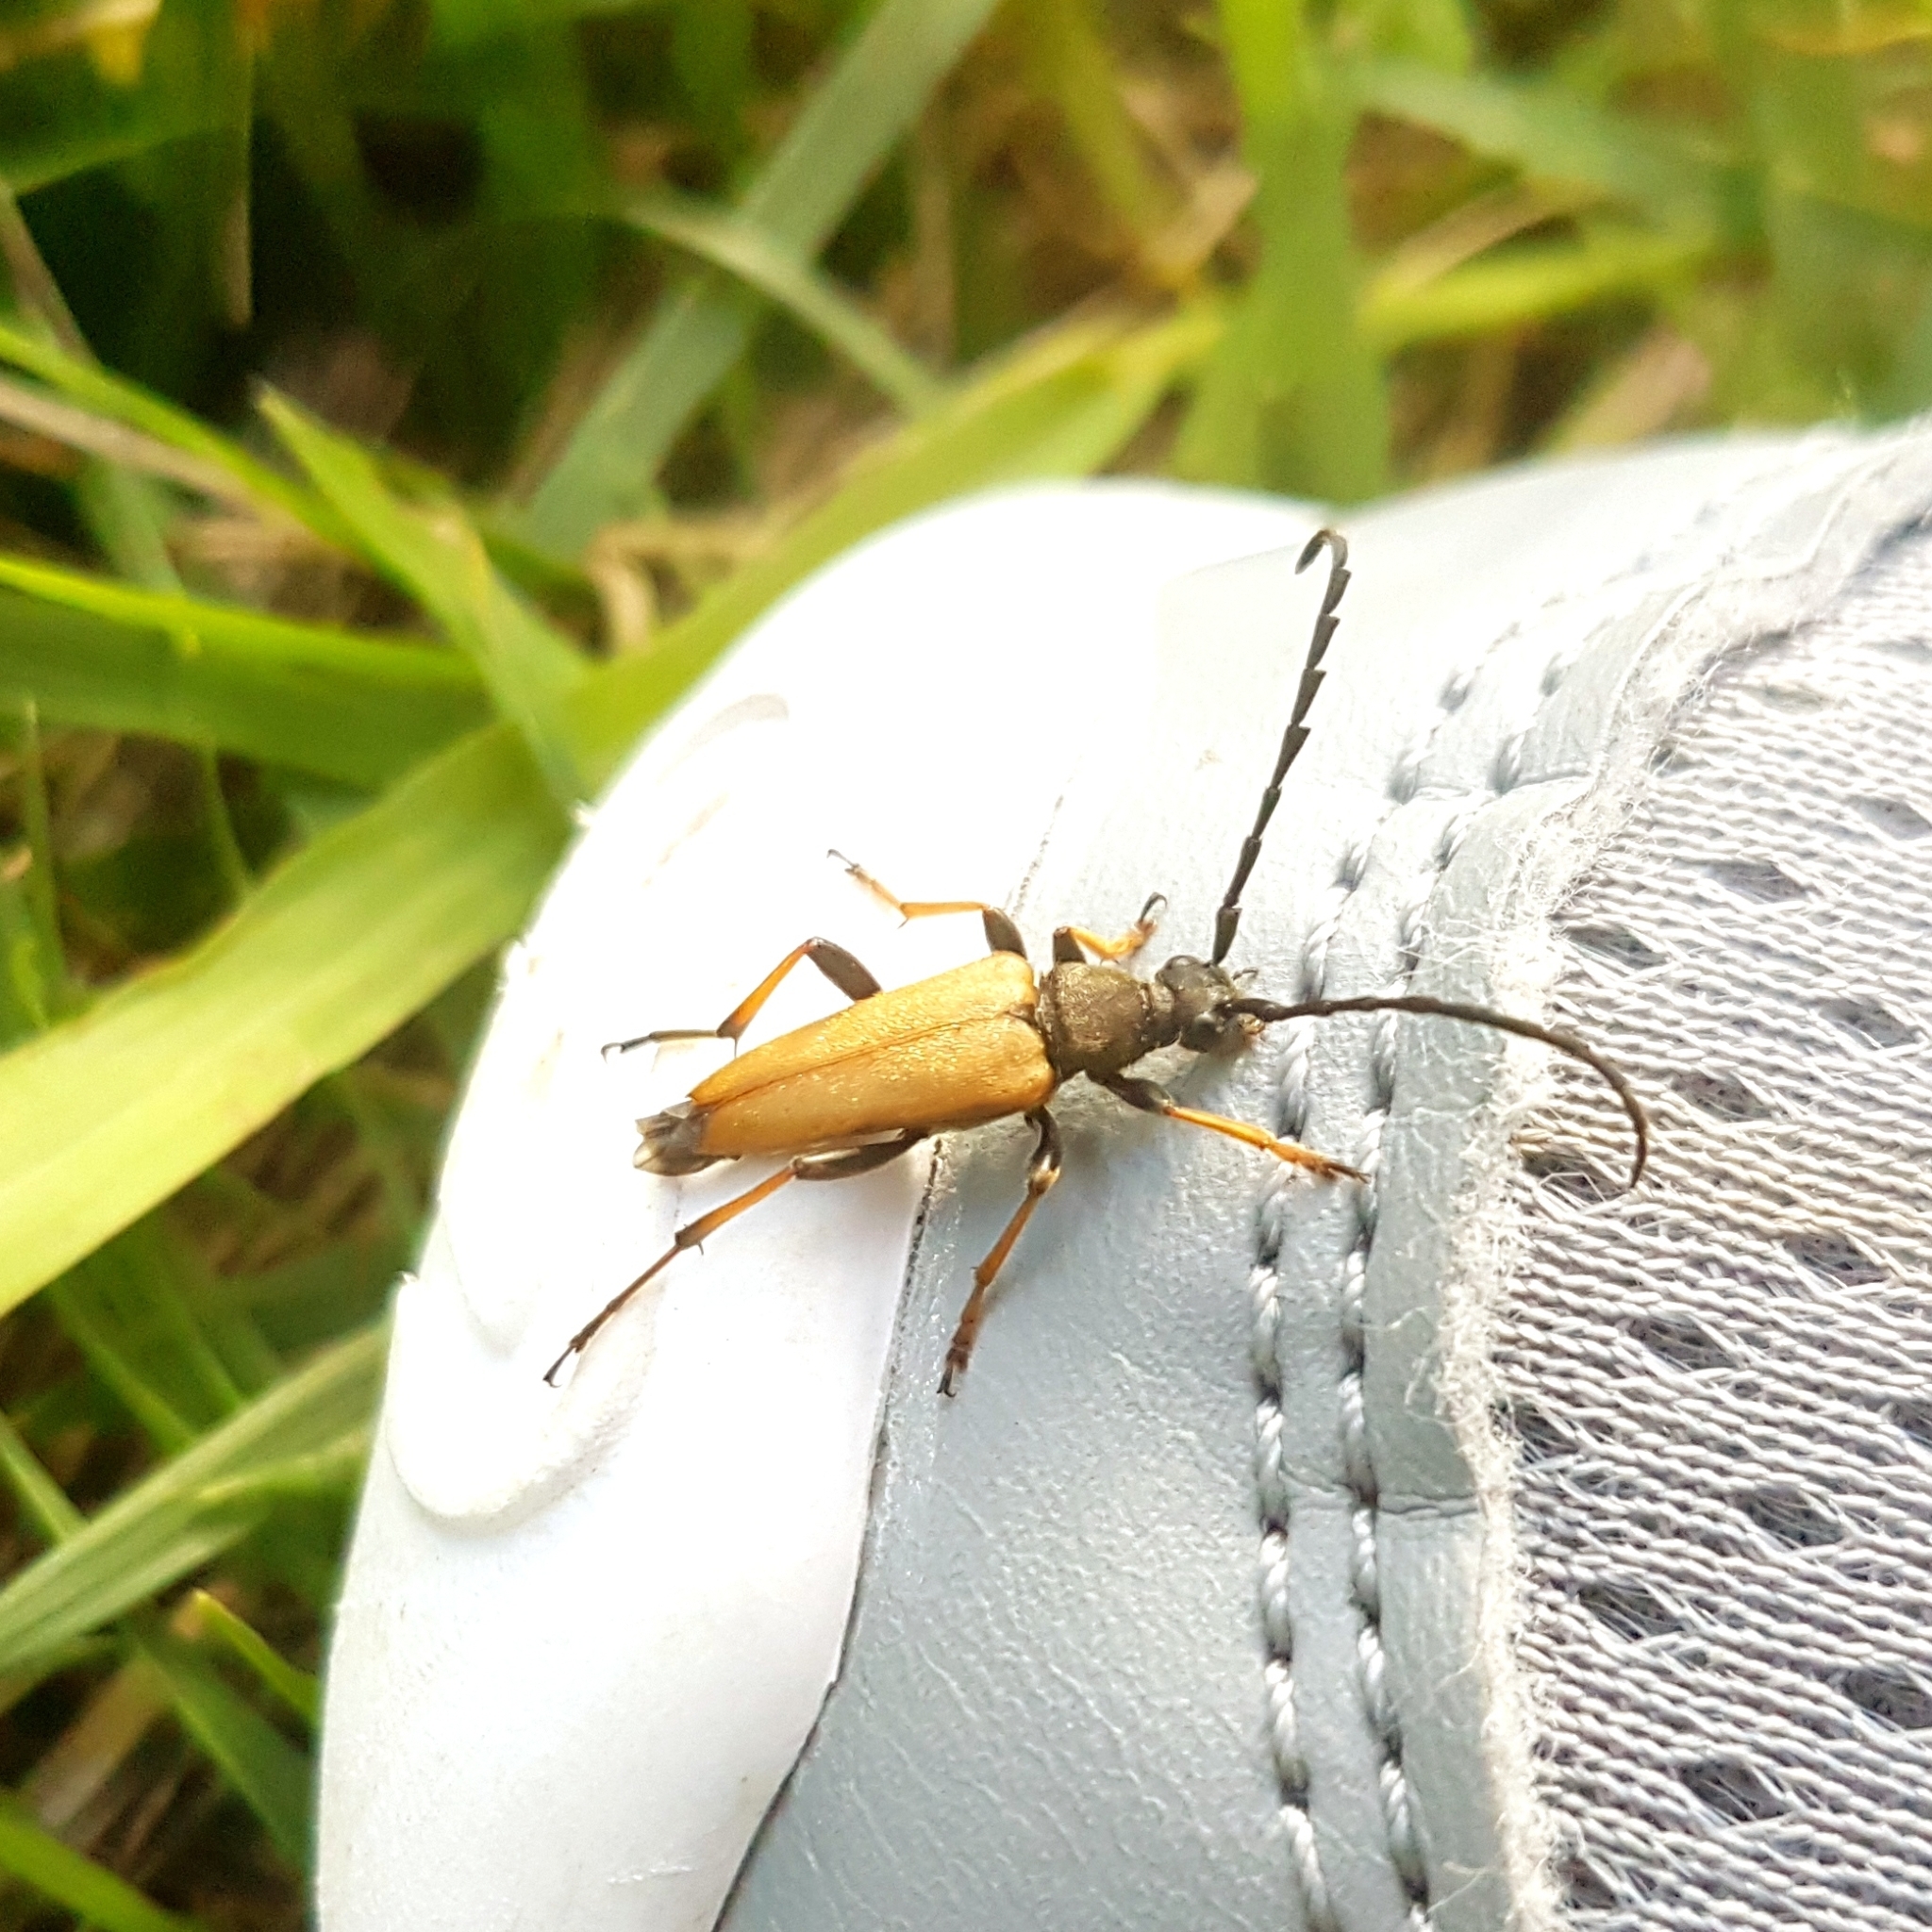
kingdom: Animalia
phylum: Arthropoda
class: Insecta
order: Coleoptera
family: Cerambycidae
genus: Stictoleptura
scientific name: Stictoleptura rubra
